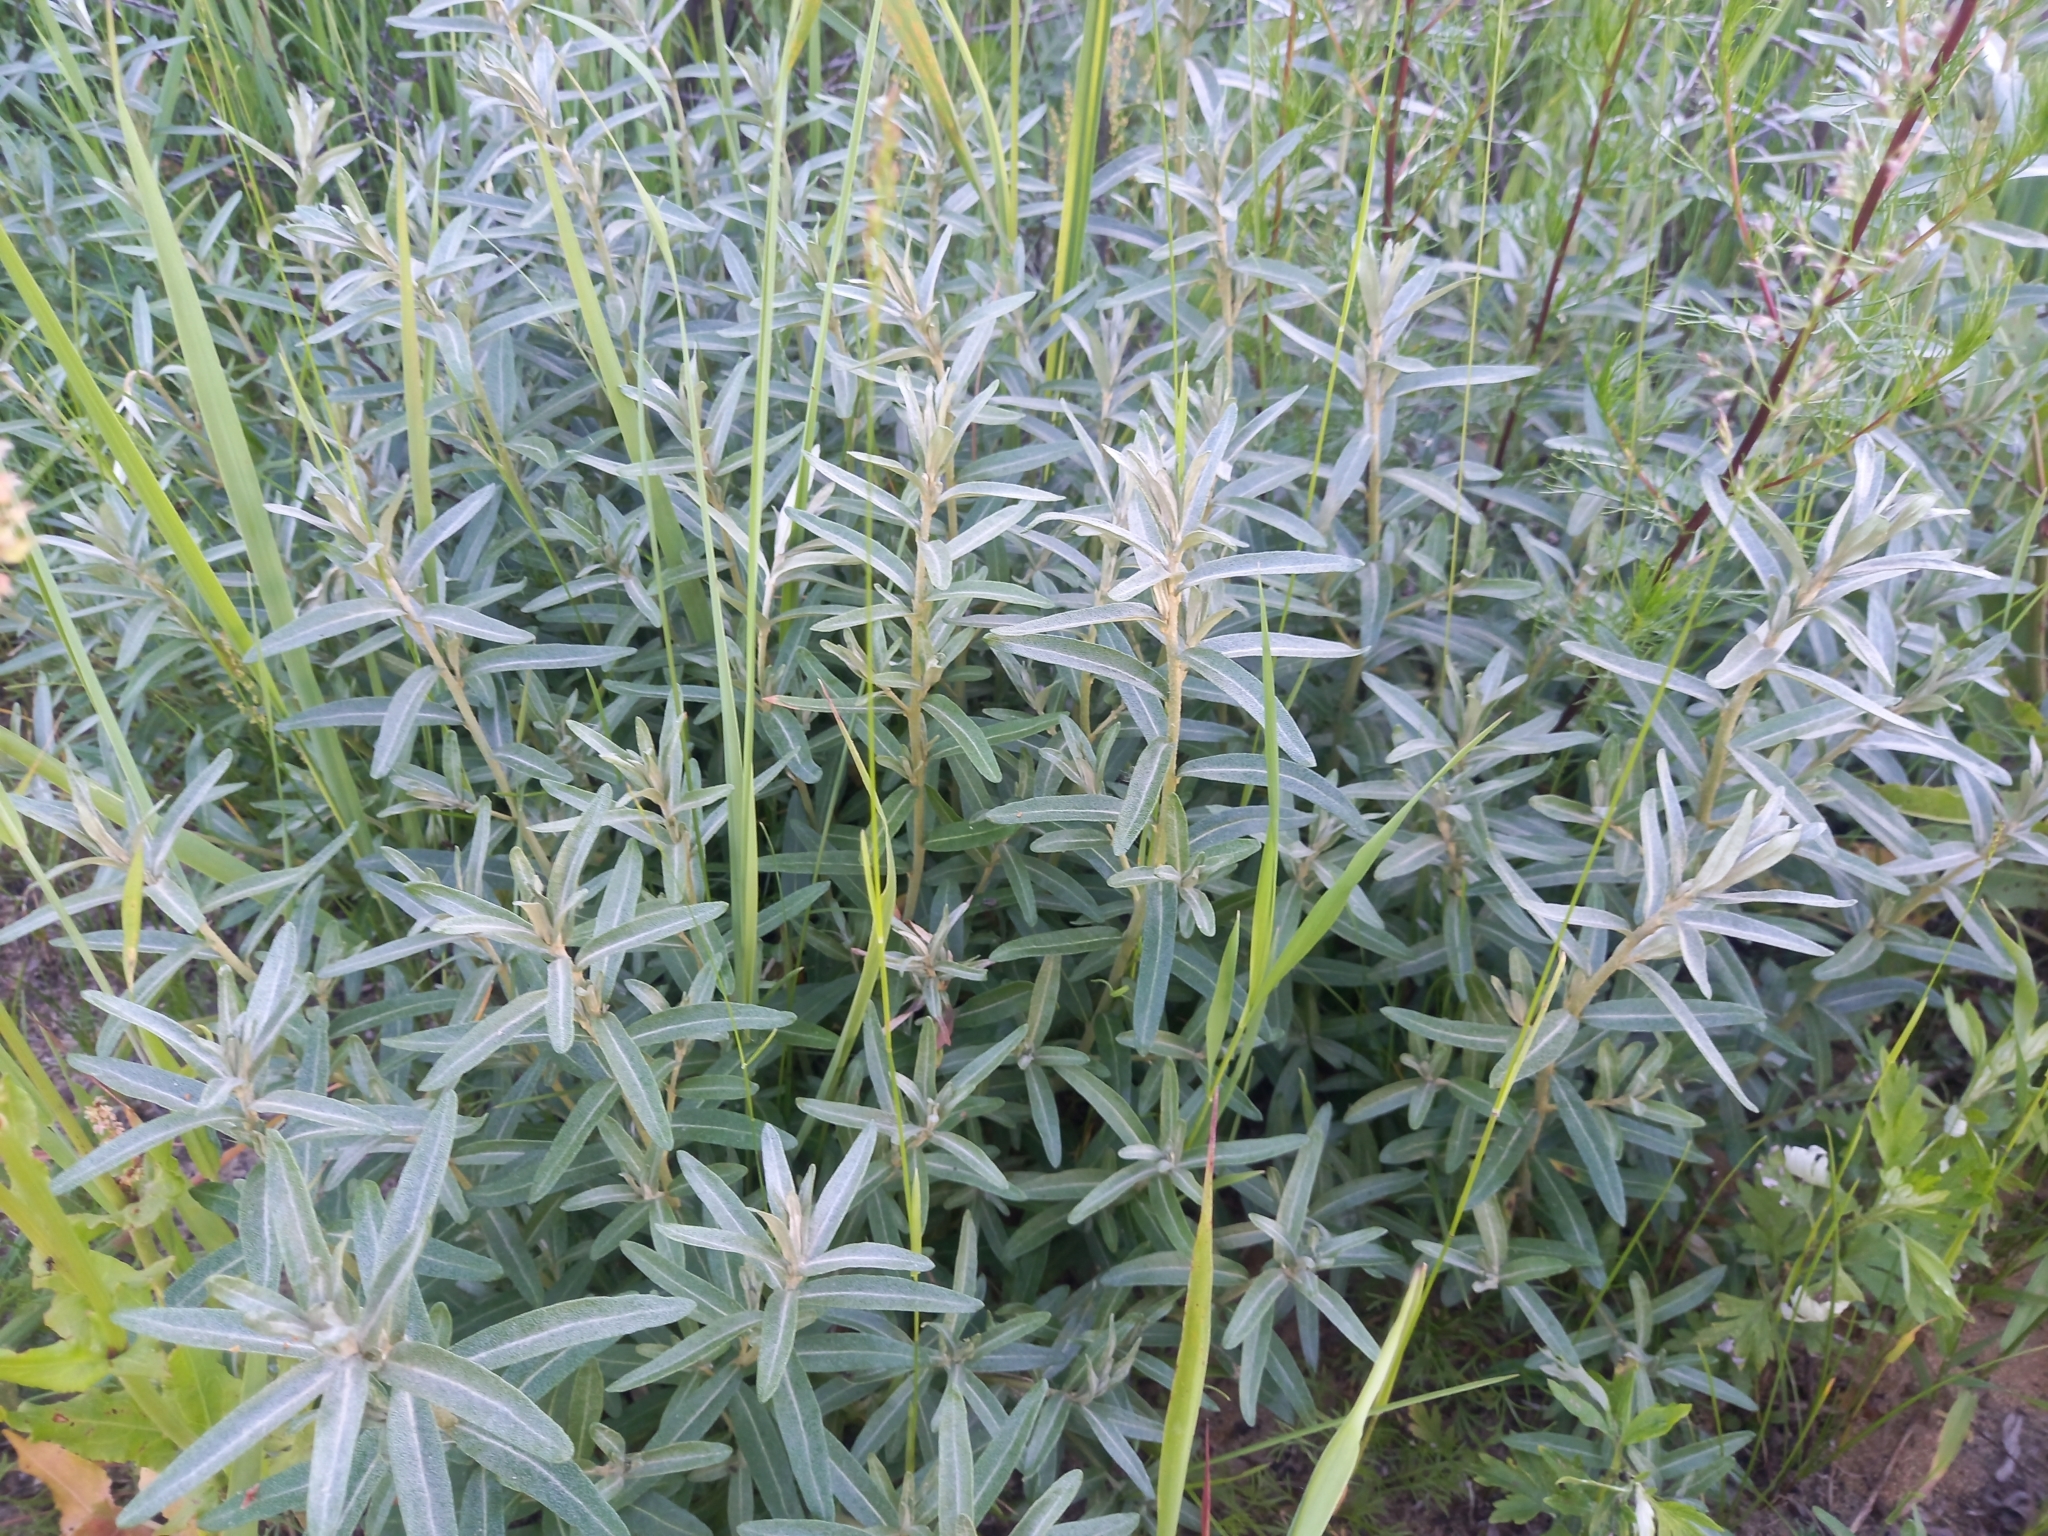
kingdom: Plantae
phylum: Tracheophyta
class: Magnoliopsida
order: Rosales
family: Elaeagnaceae
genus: Hippophae
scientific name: Hippophae rhamnoides
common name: Sea-buckthorn
